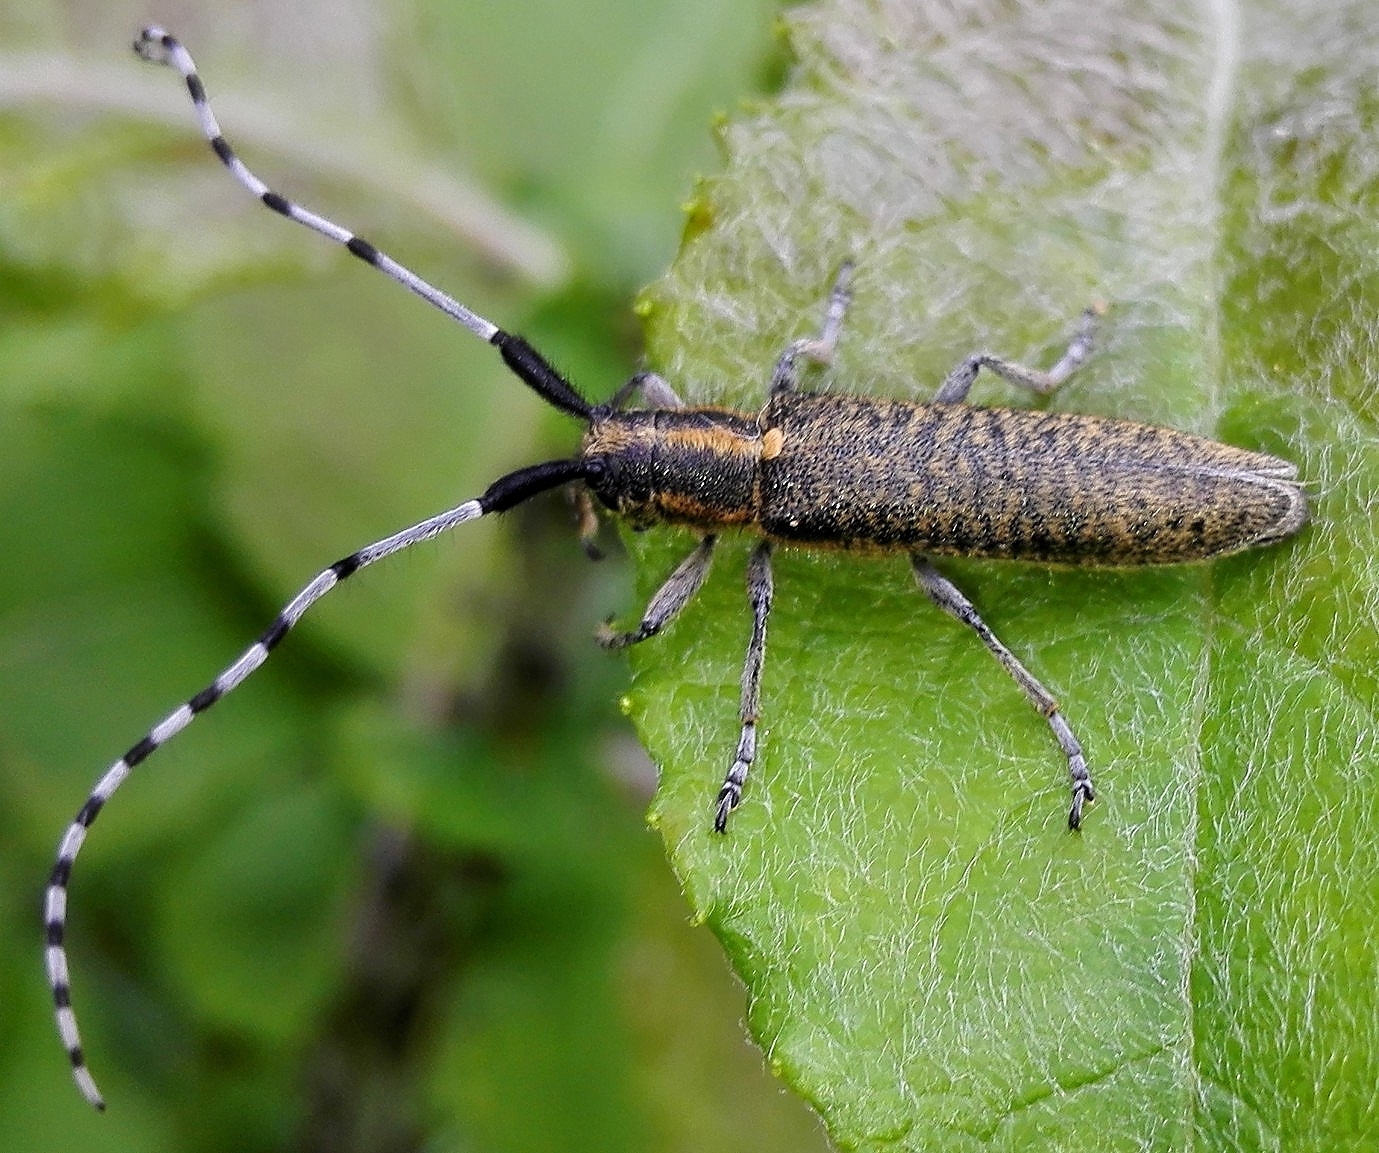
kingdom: Animalia
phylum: Arthropoda
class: Insecta
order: Coleoptera
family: Cerambycidae
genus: Agapanthia
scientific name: Agapanthia villosoviridescens
